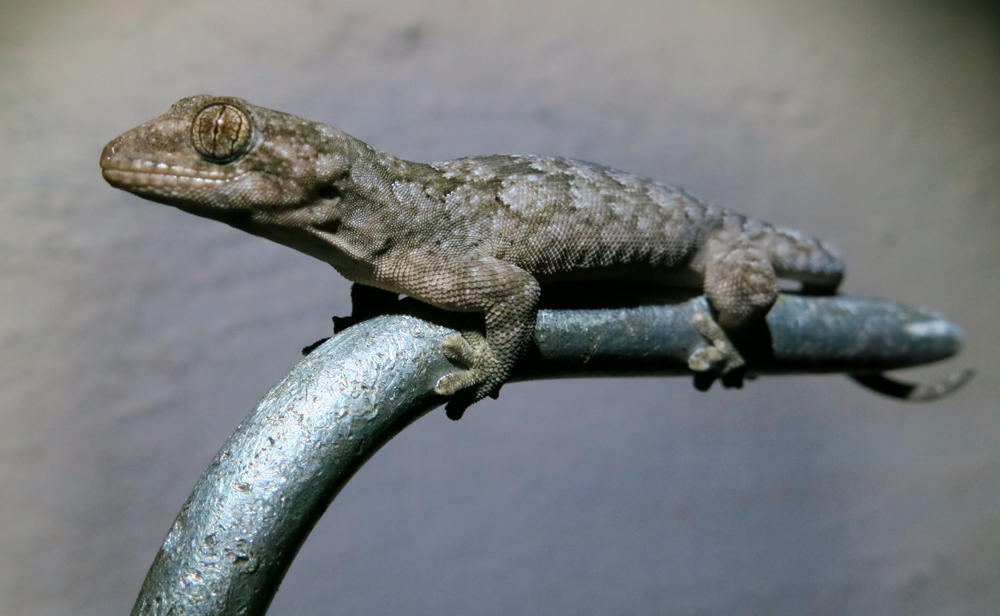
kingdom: Animalia
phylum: Chordata
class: Squamata
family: Gekkonidae
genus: Homopholis
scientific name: Homopholis walbergii
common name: Wahlberg’s velvet gecko
